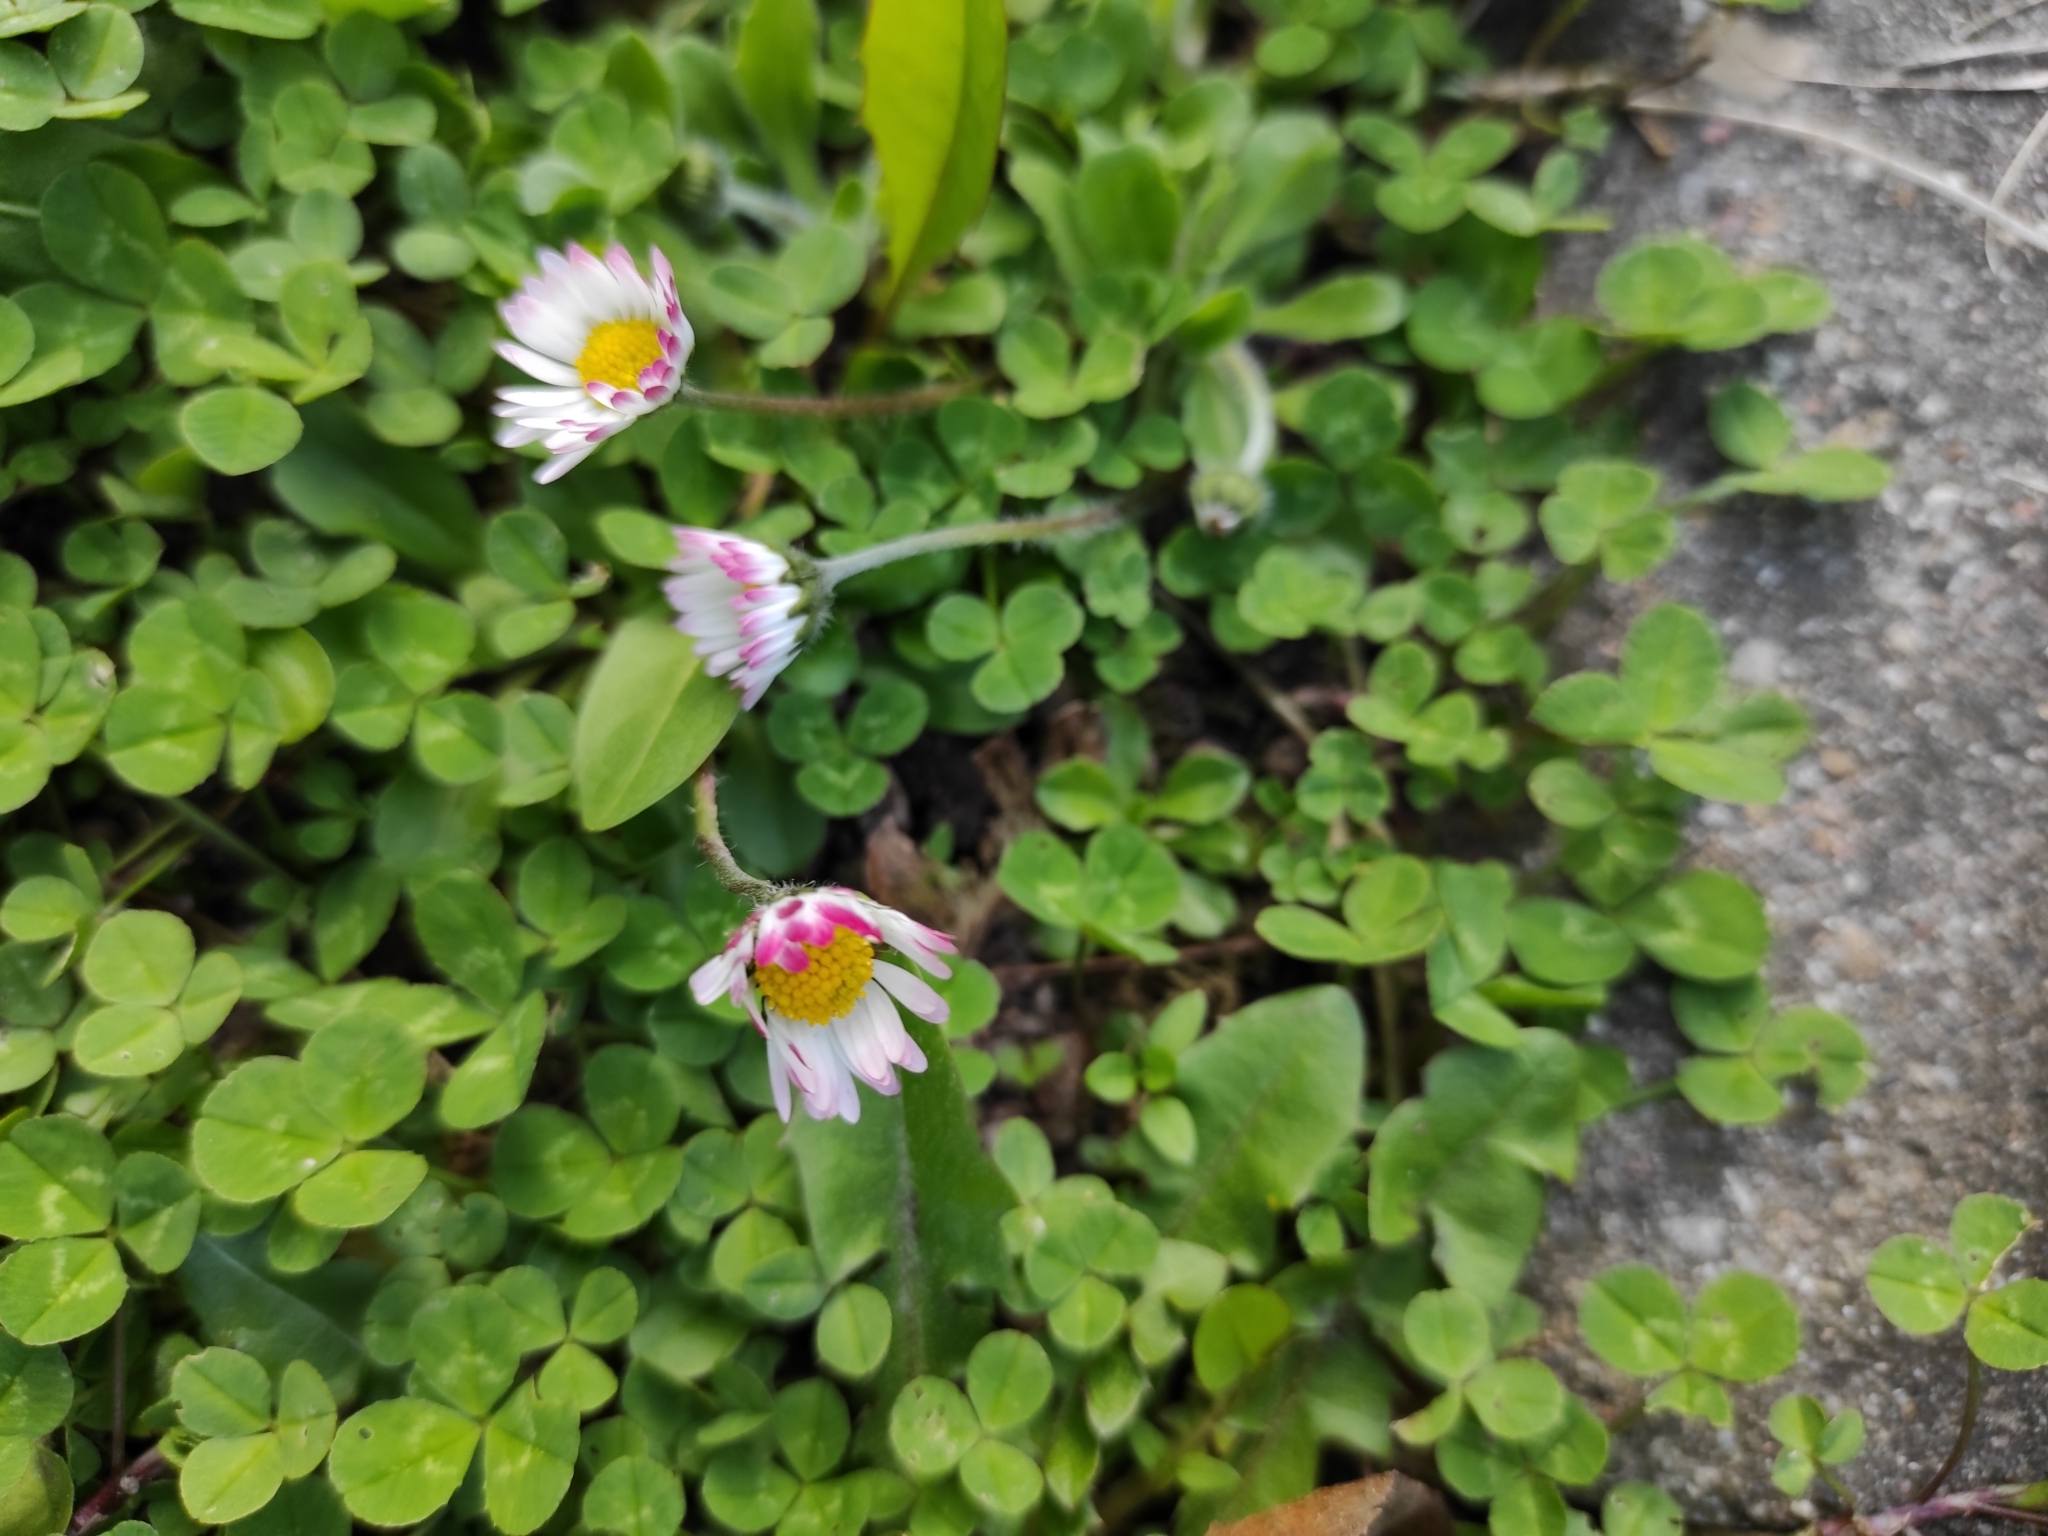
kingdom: Plantae
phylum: Tracheophyta
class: Magnoliopsida
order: Asterales
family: Asteraceae
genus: Bellis
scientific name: Bellis perennis
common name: Lawndaisy
